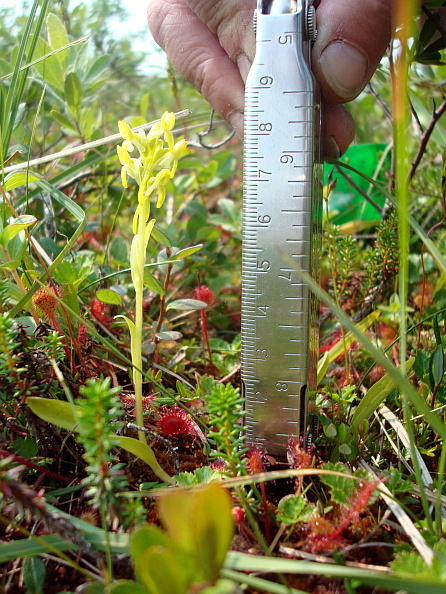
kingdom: Plantae
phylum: Tracheophyta
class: Liliopsida
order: Asparagales
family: Orchidaceae
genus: Platanthera
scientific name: Platanthera tipuloides
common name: Aleutian bog orchid
